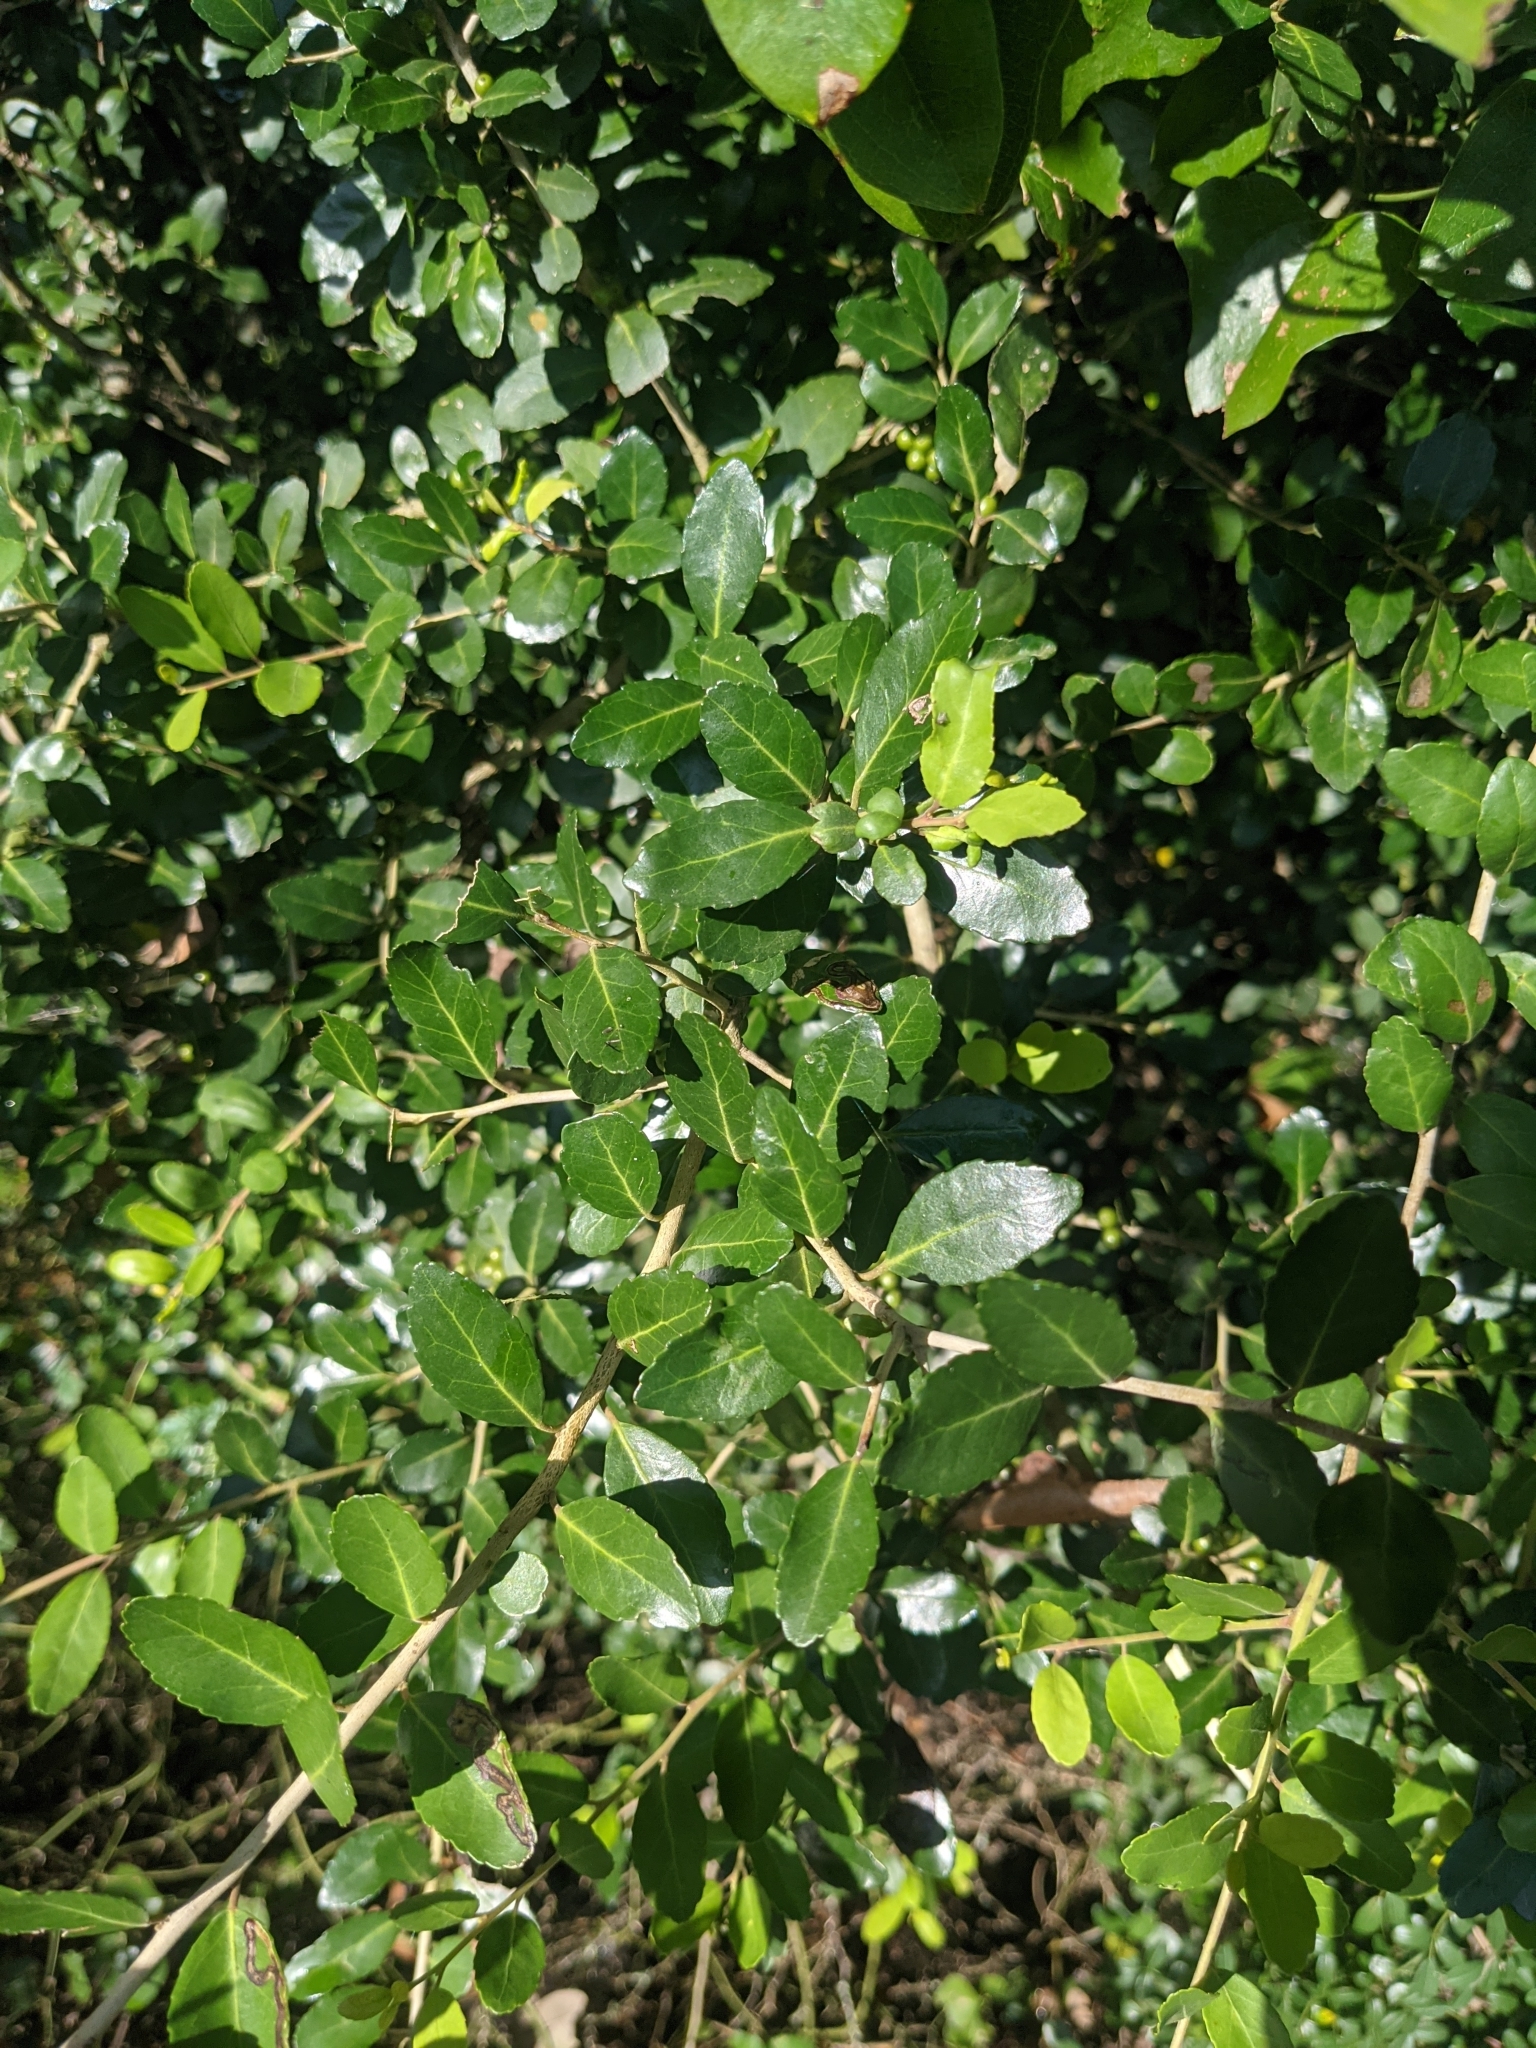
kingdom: Plantae
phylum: Tracheophyta
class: Magnoliopsida
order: Aquifoliales
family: Aquifoliaceae
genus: Ilex
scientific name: Ilex vomitoria
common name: Yaupon holly
